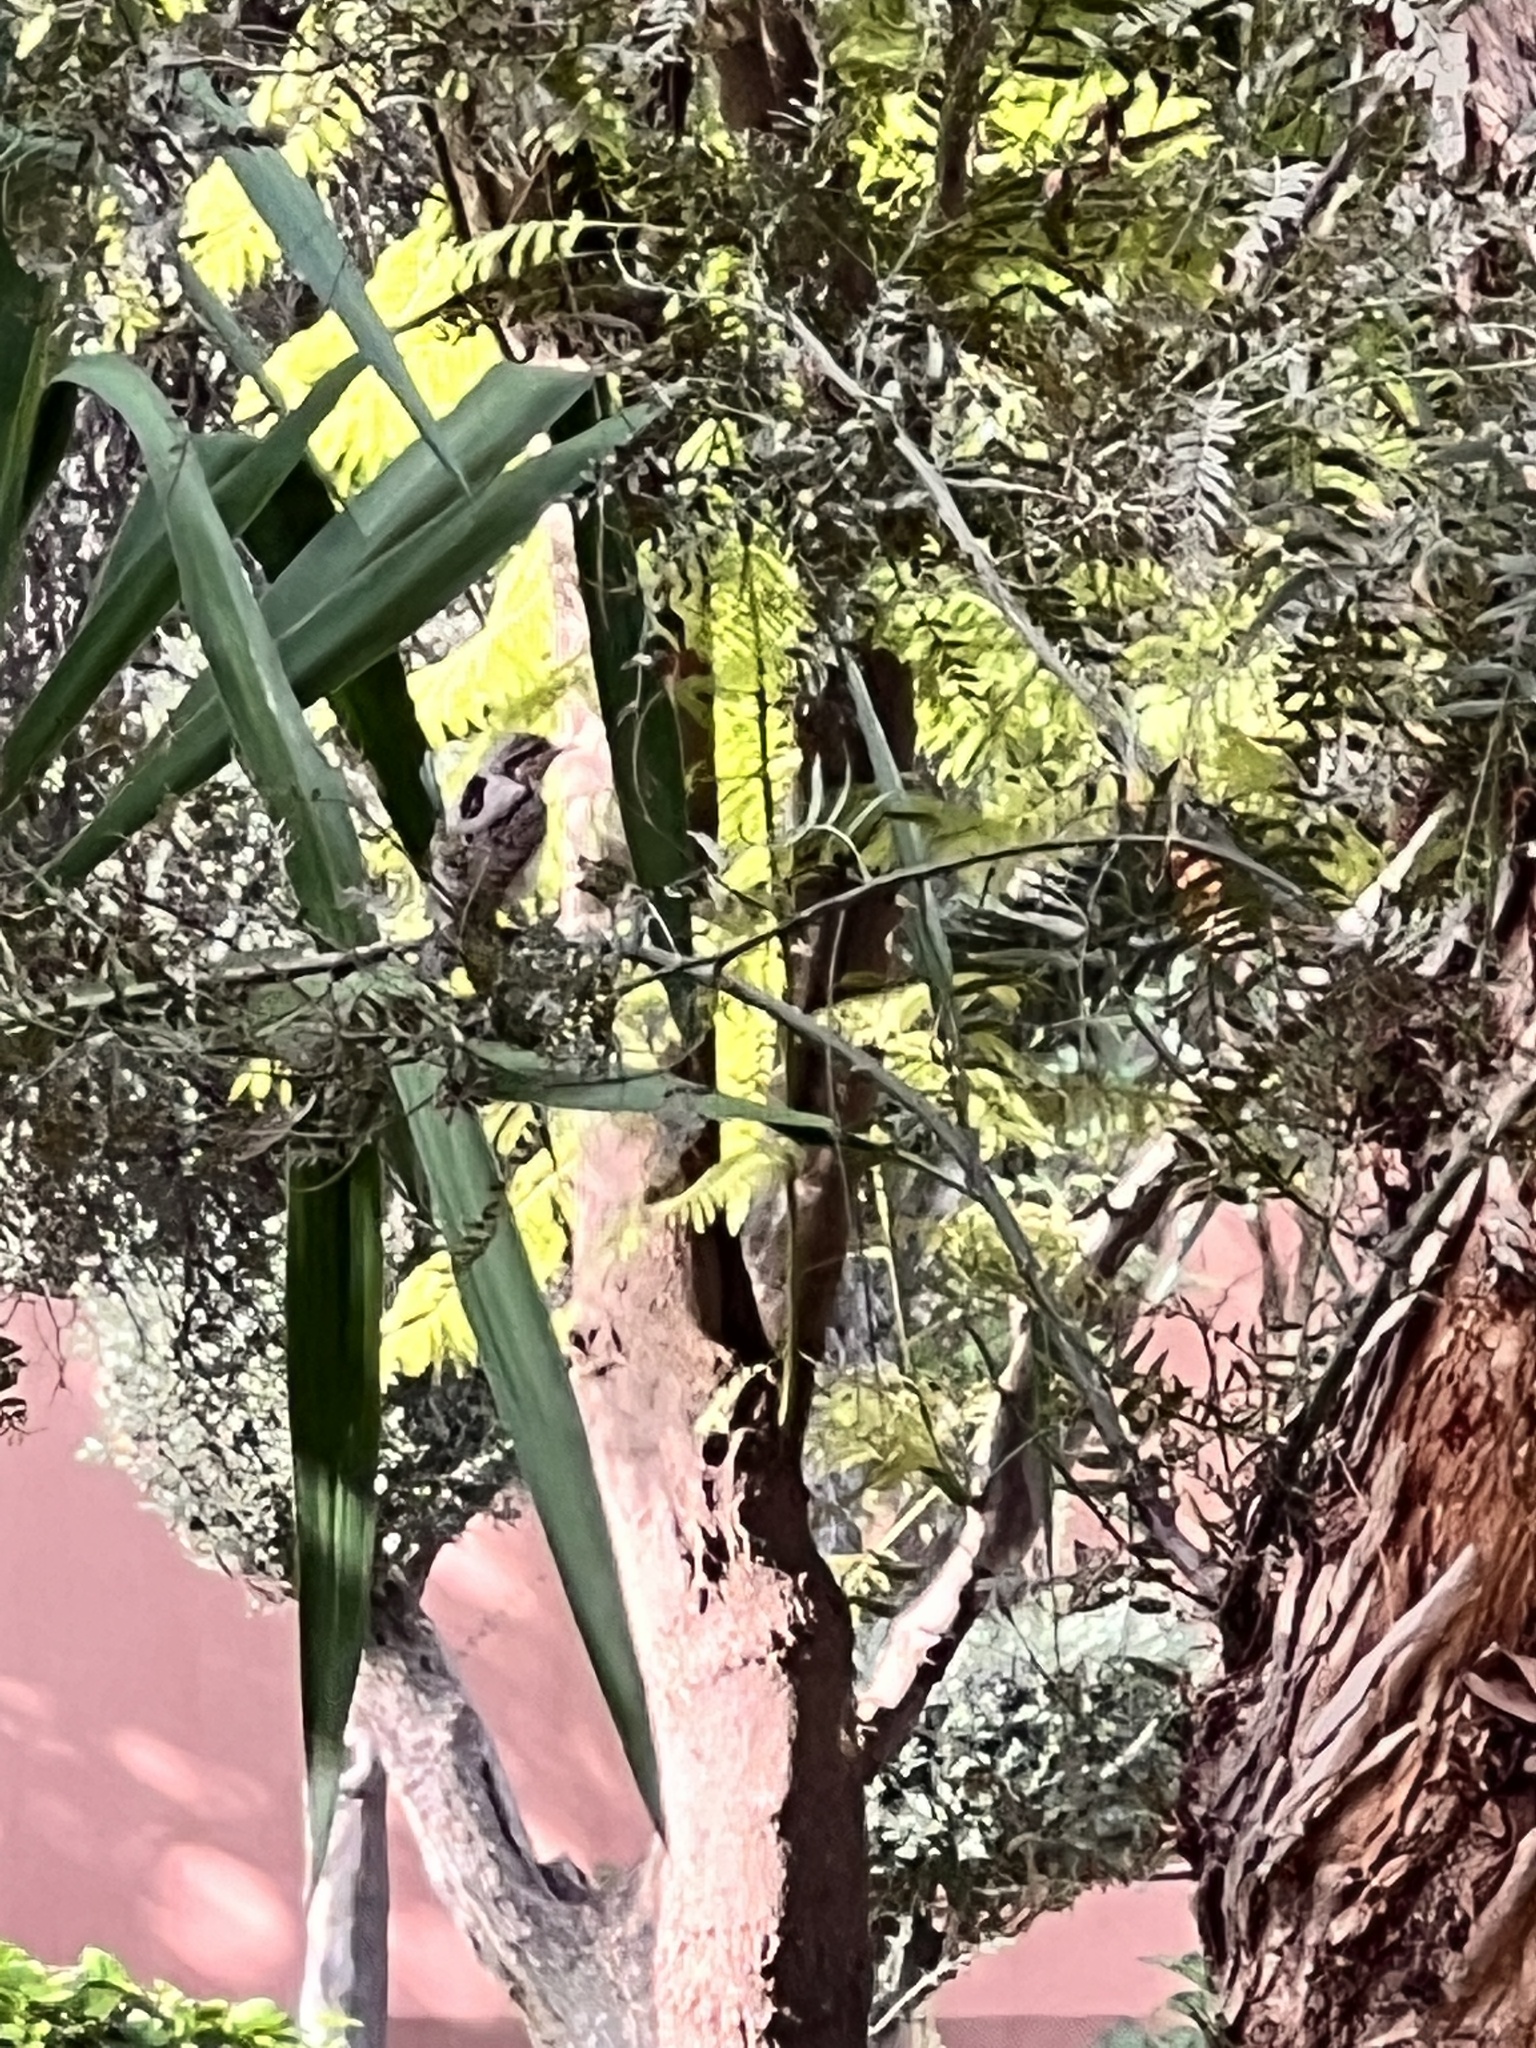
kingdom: Animalia
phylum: Chordata
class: Aves
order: Piciformes
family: Picidae
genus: Jynx
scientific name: Jynx torquilla
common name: Eurasian wryneck
